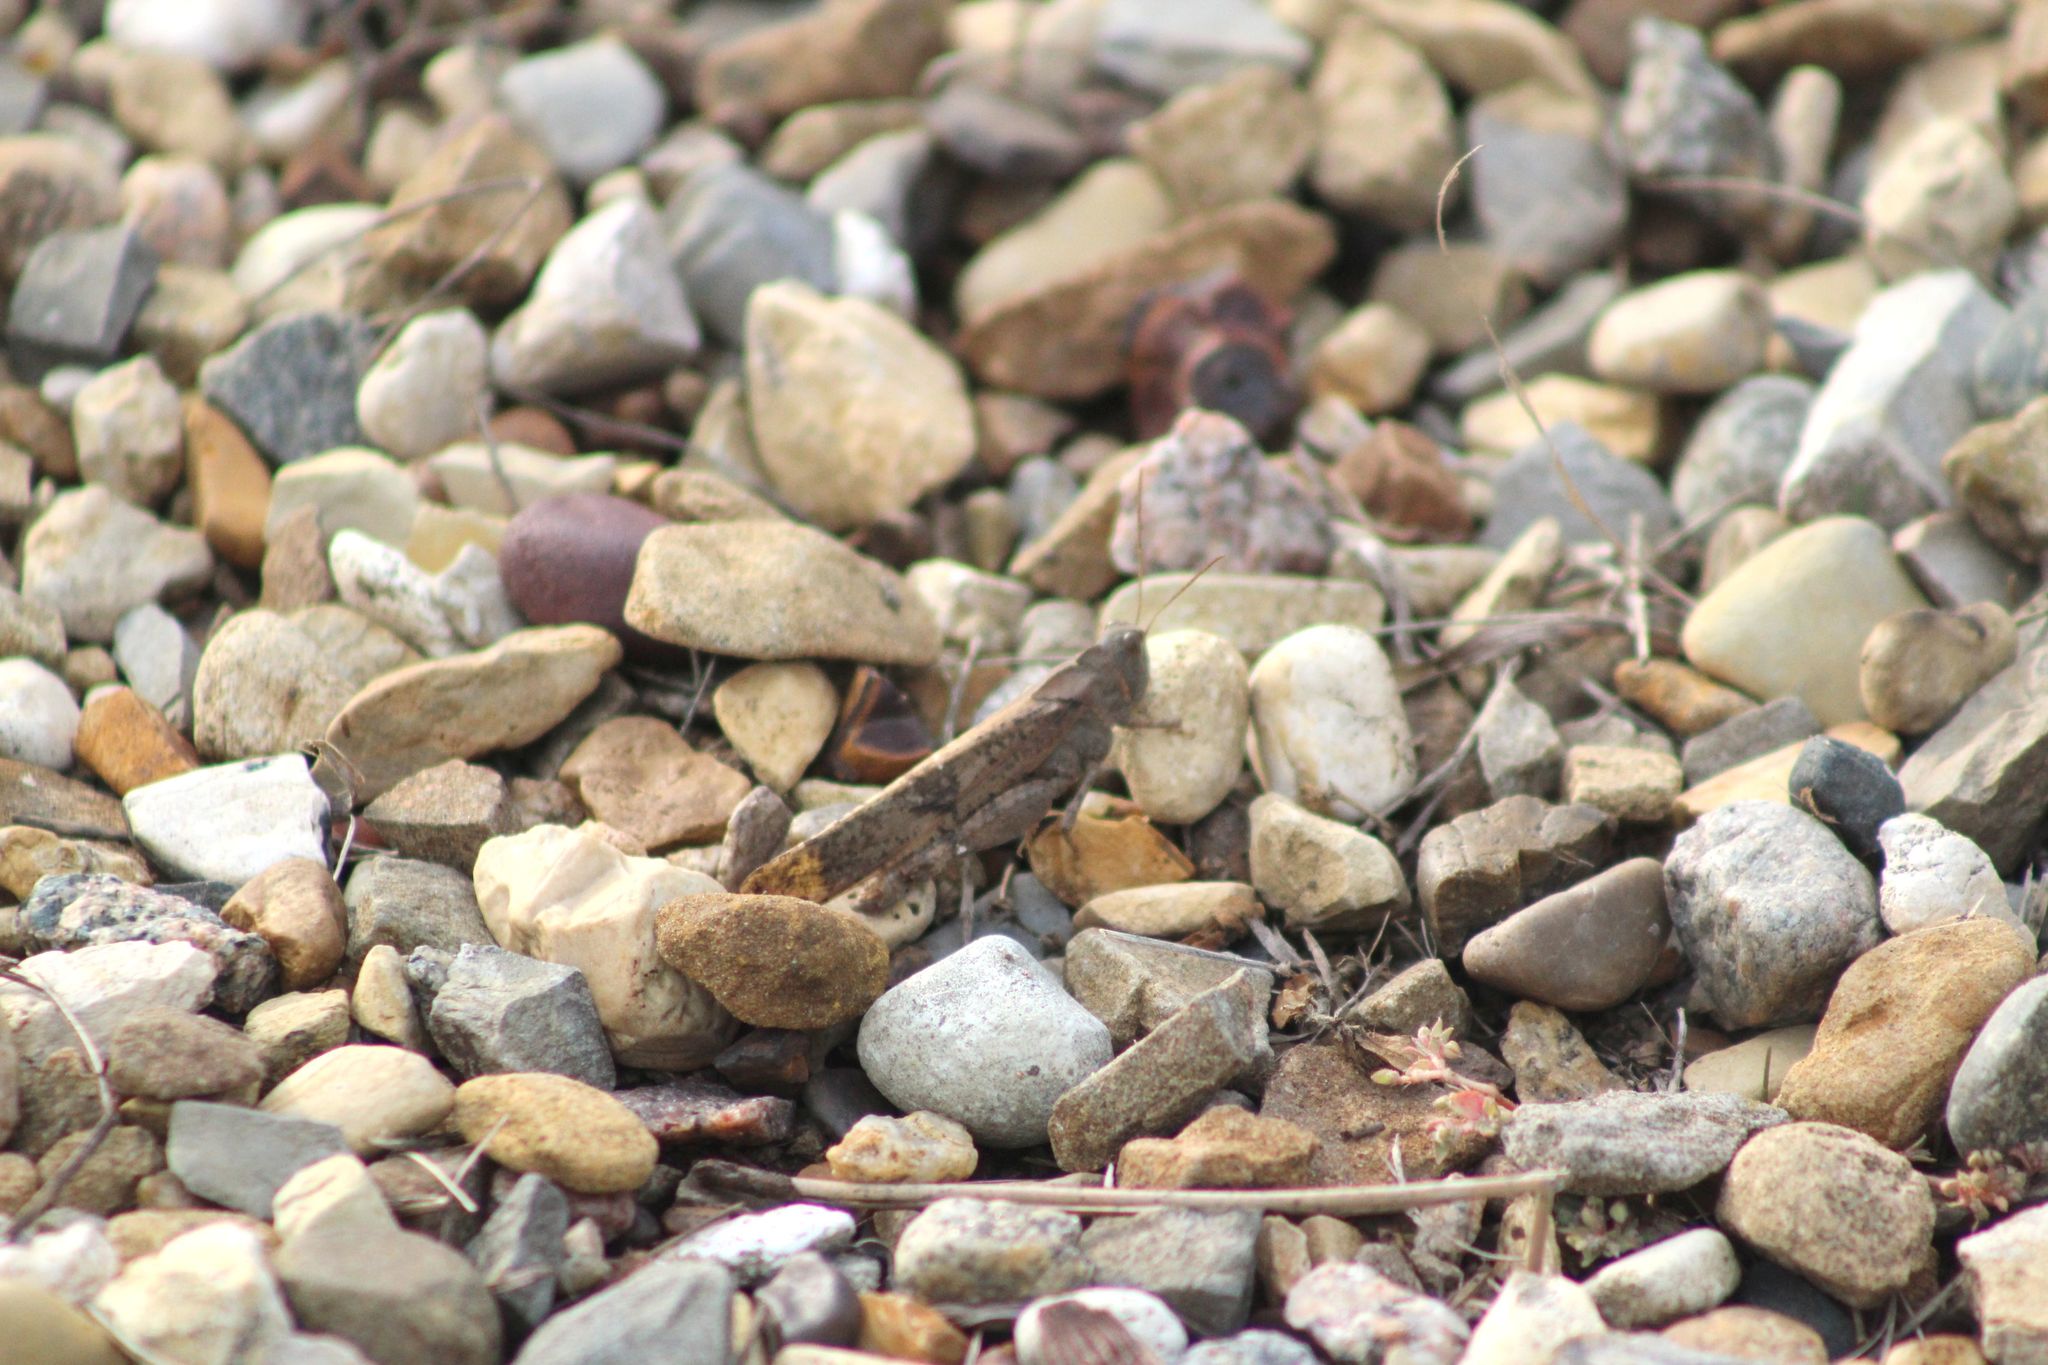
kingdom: Animalia
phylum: Arthropoda
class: Insecta
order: Orthoptera
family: Acrididae
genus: Dissosteira
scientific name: Dissosteira carolina
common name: Carolina grasshopper
